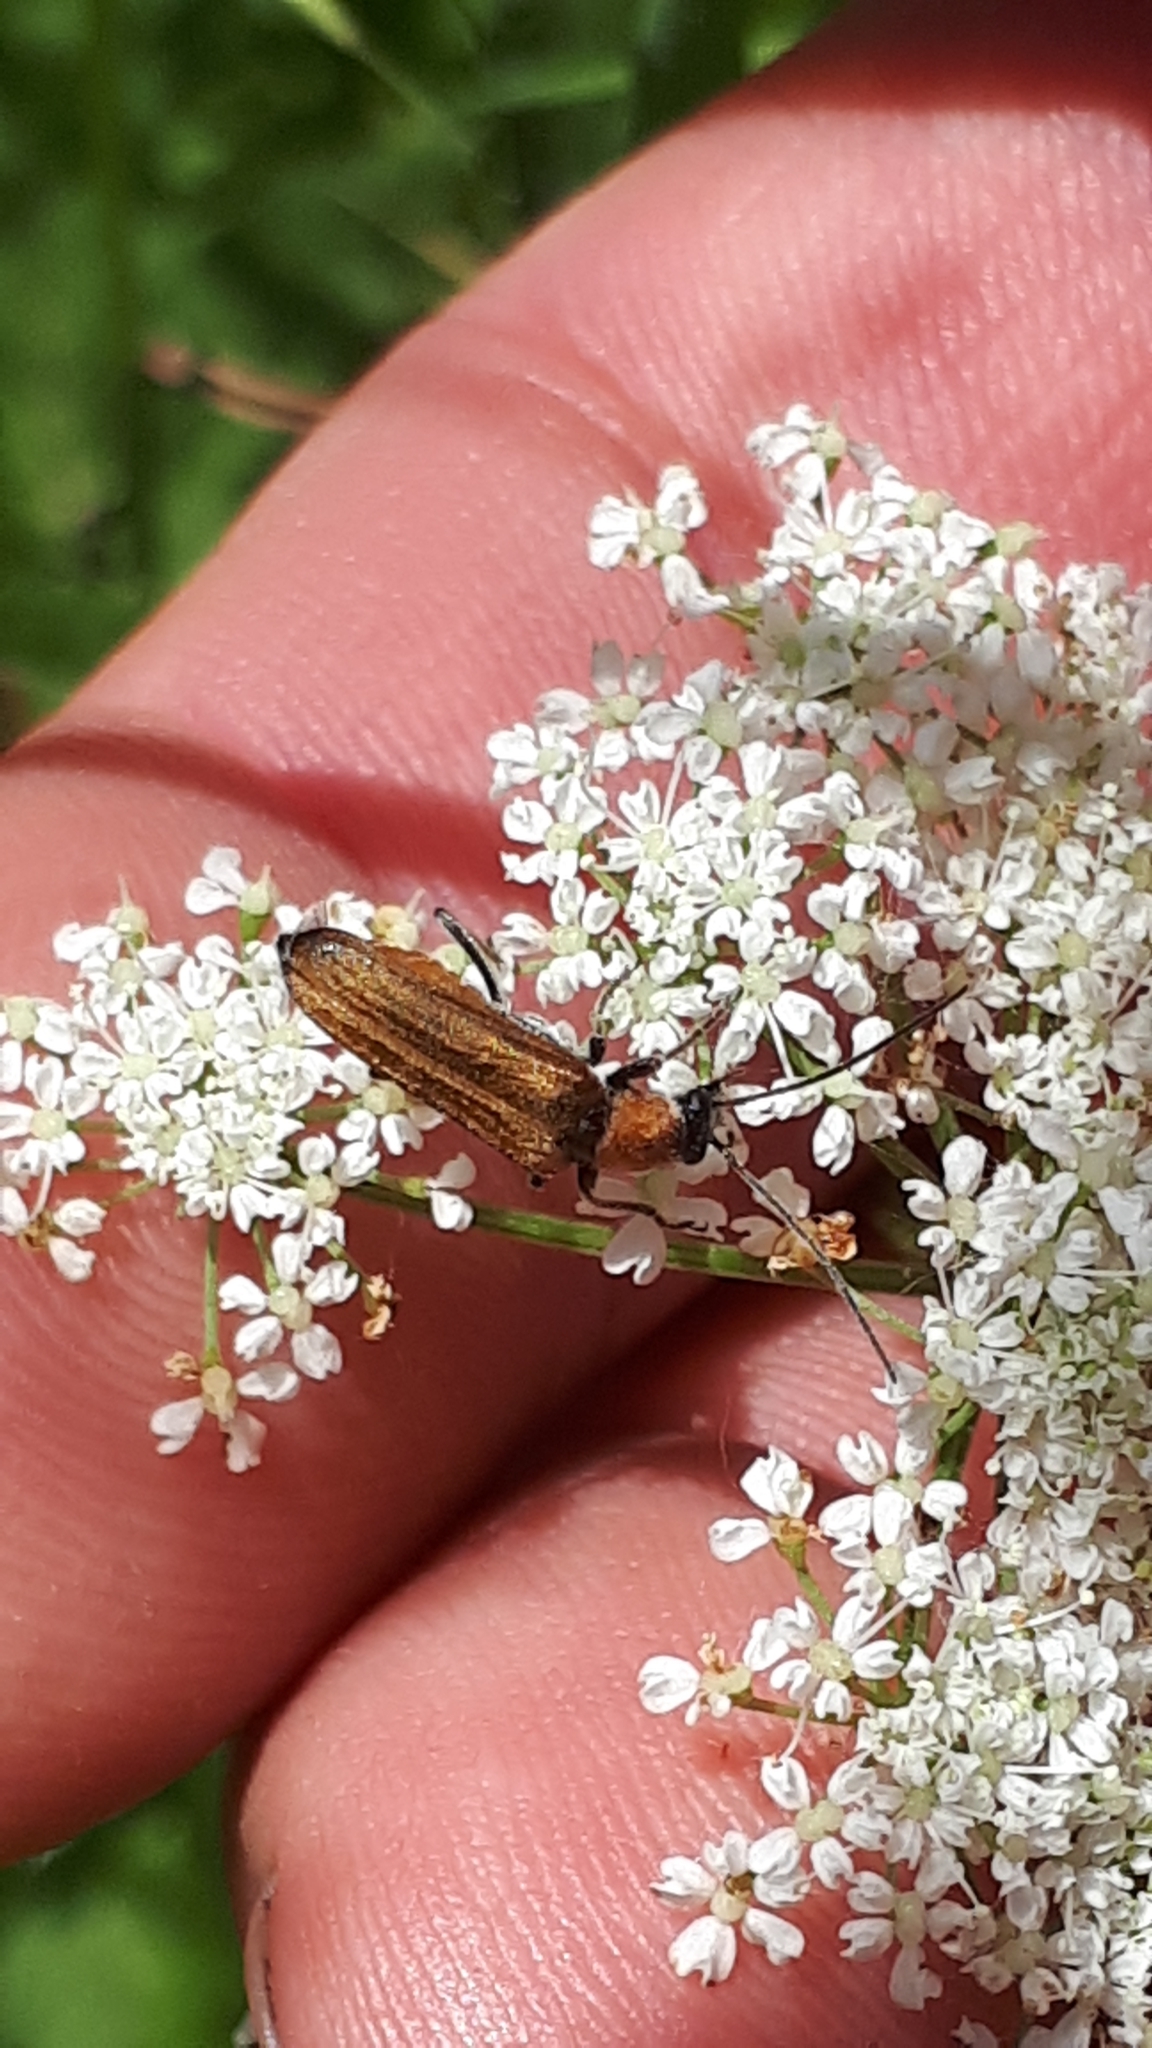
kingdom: Animalia
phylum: Arthropoda
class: Insecta
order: Coleoptera
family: Oedemeridae
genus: Anogcodes
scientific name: Anogcodes rufiventris
